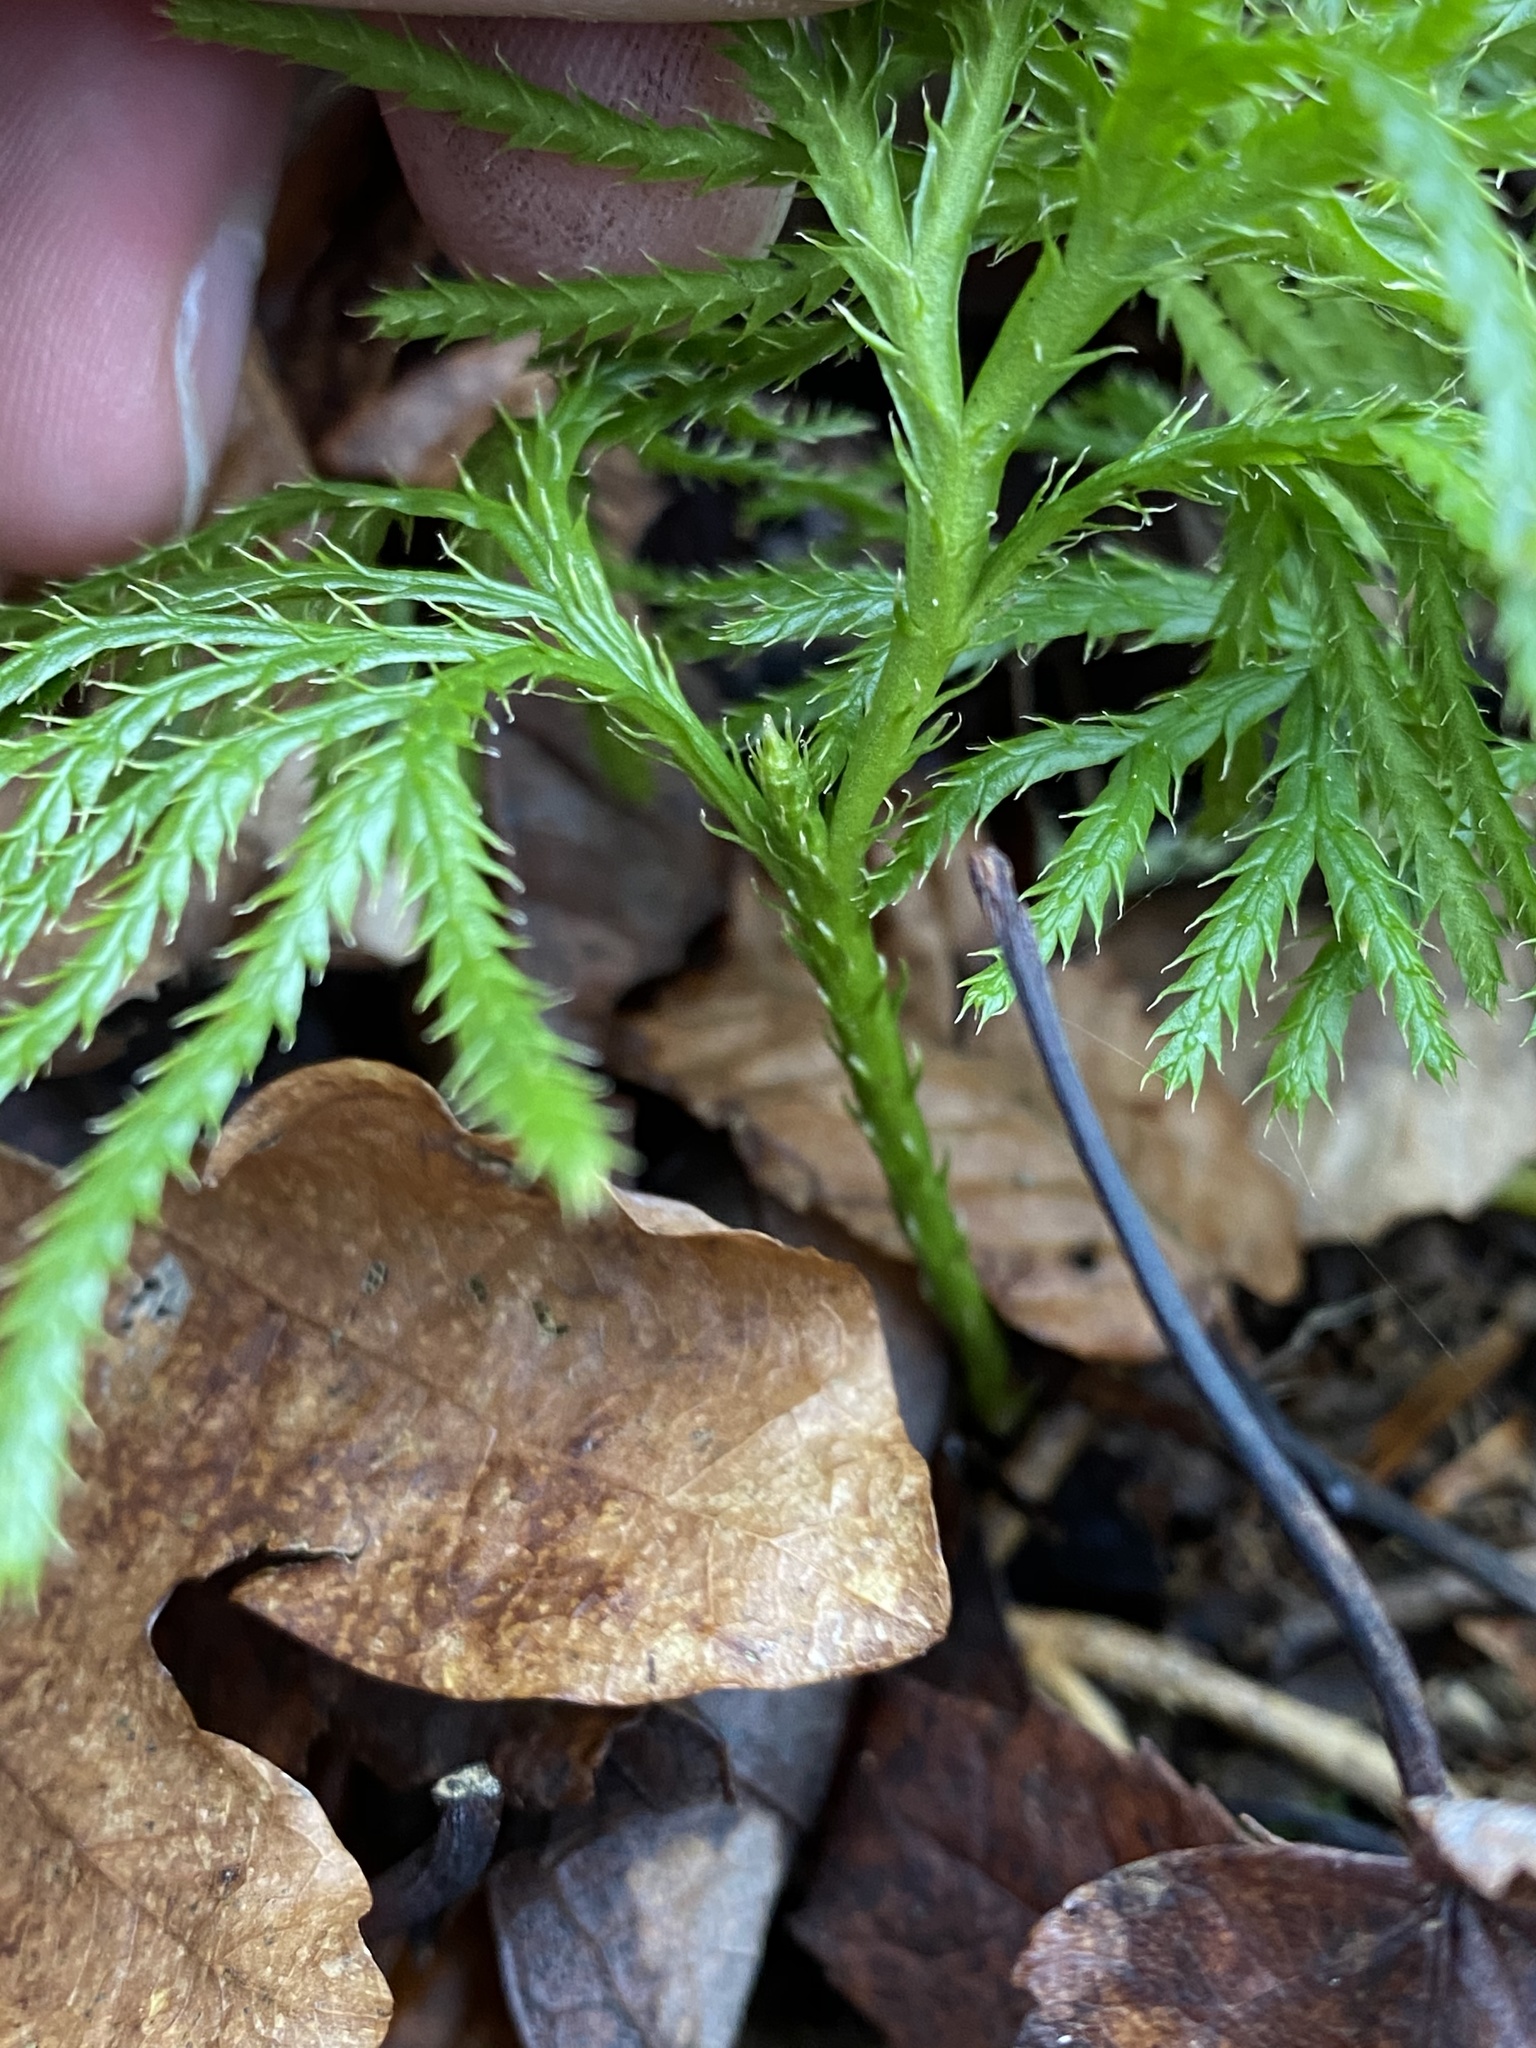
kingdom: Plantae
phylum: Tracheophyta
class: Lycopodiopsida
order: Lycopodiales
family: Lycopodiaceae
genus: Diphasiastrum
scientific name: Diphasiastrum digitatum
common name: Southern running-pine
